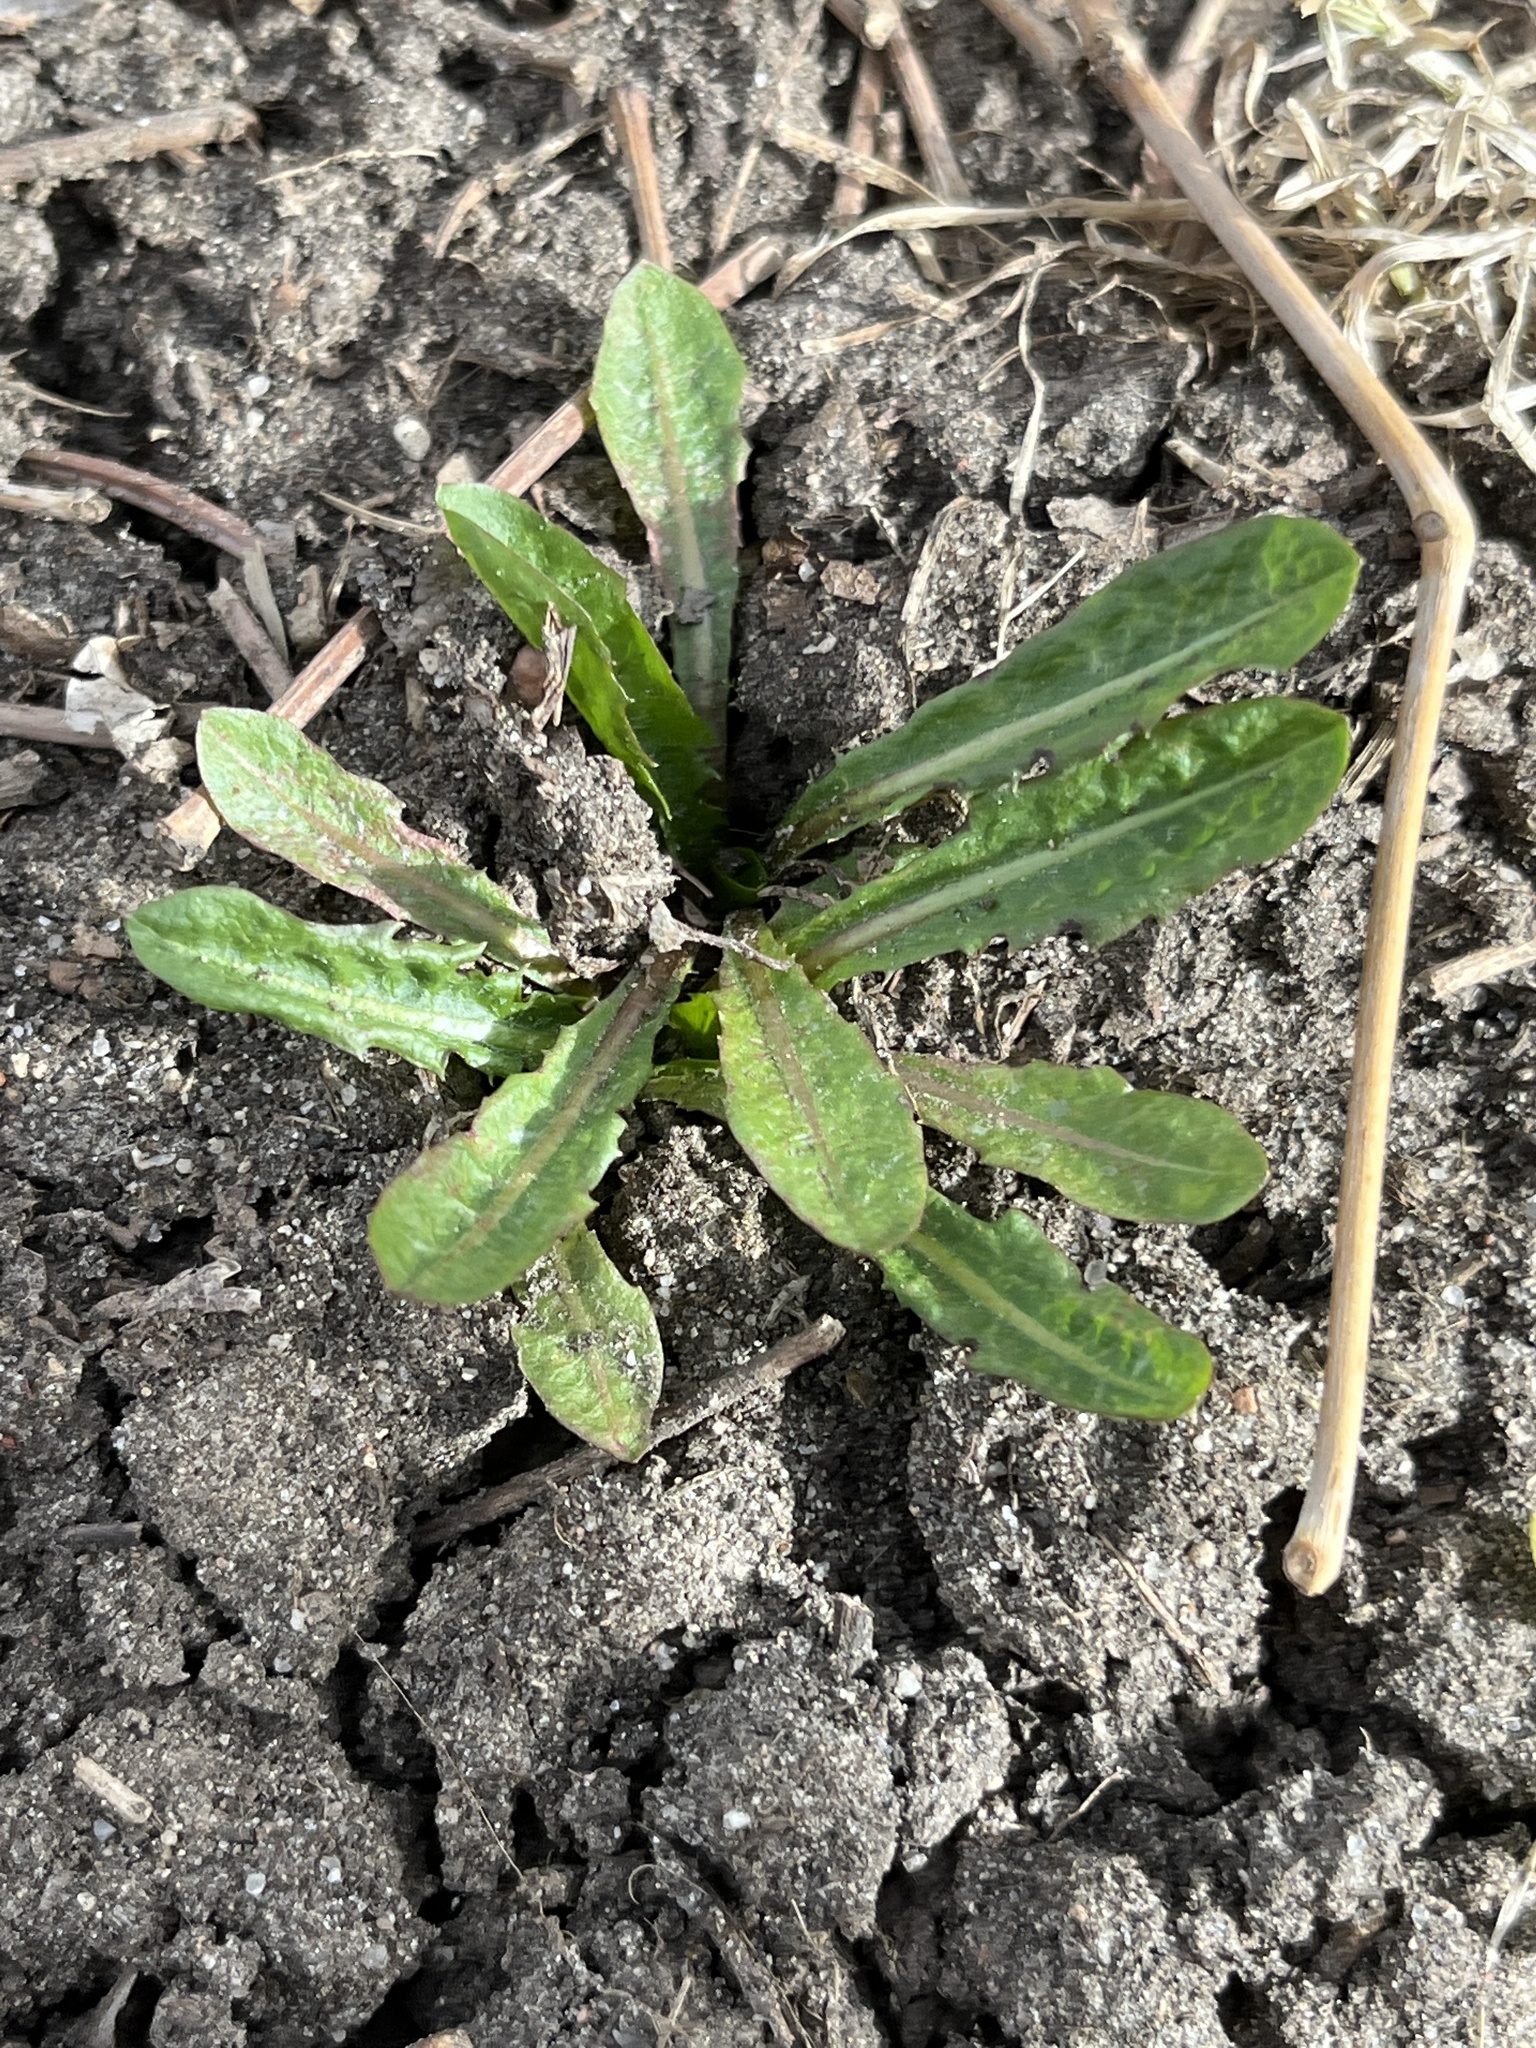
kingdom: Plantae
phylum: Tracheophyta
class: Magnoliopsida
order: Asterales
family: Asteraceae
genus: Taraxacum
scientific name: Taraxacum
